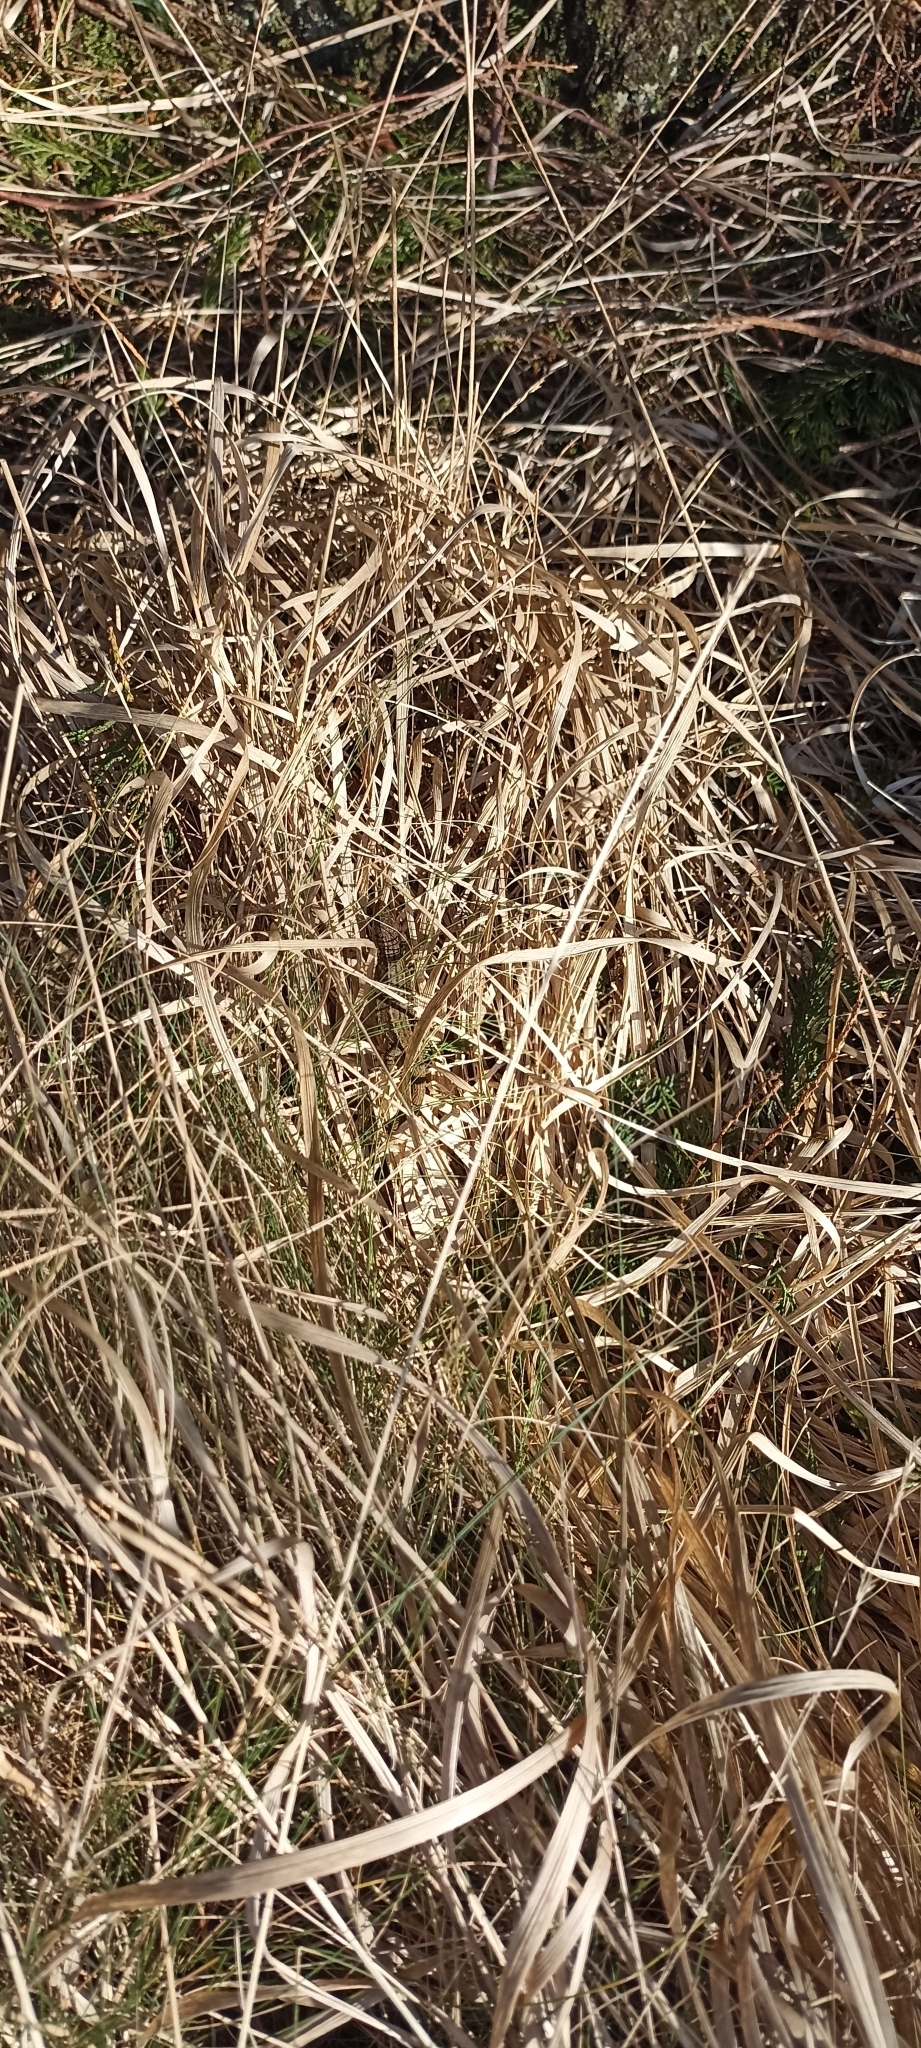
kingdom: Animalia
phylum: Chordata
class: Squamata
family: Lacertidae
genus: Zootoca
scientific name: Zootoca vivipara
